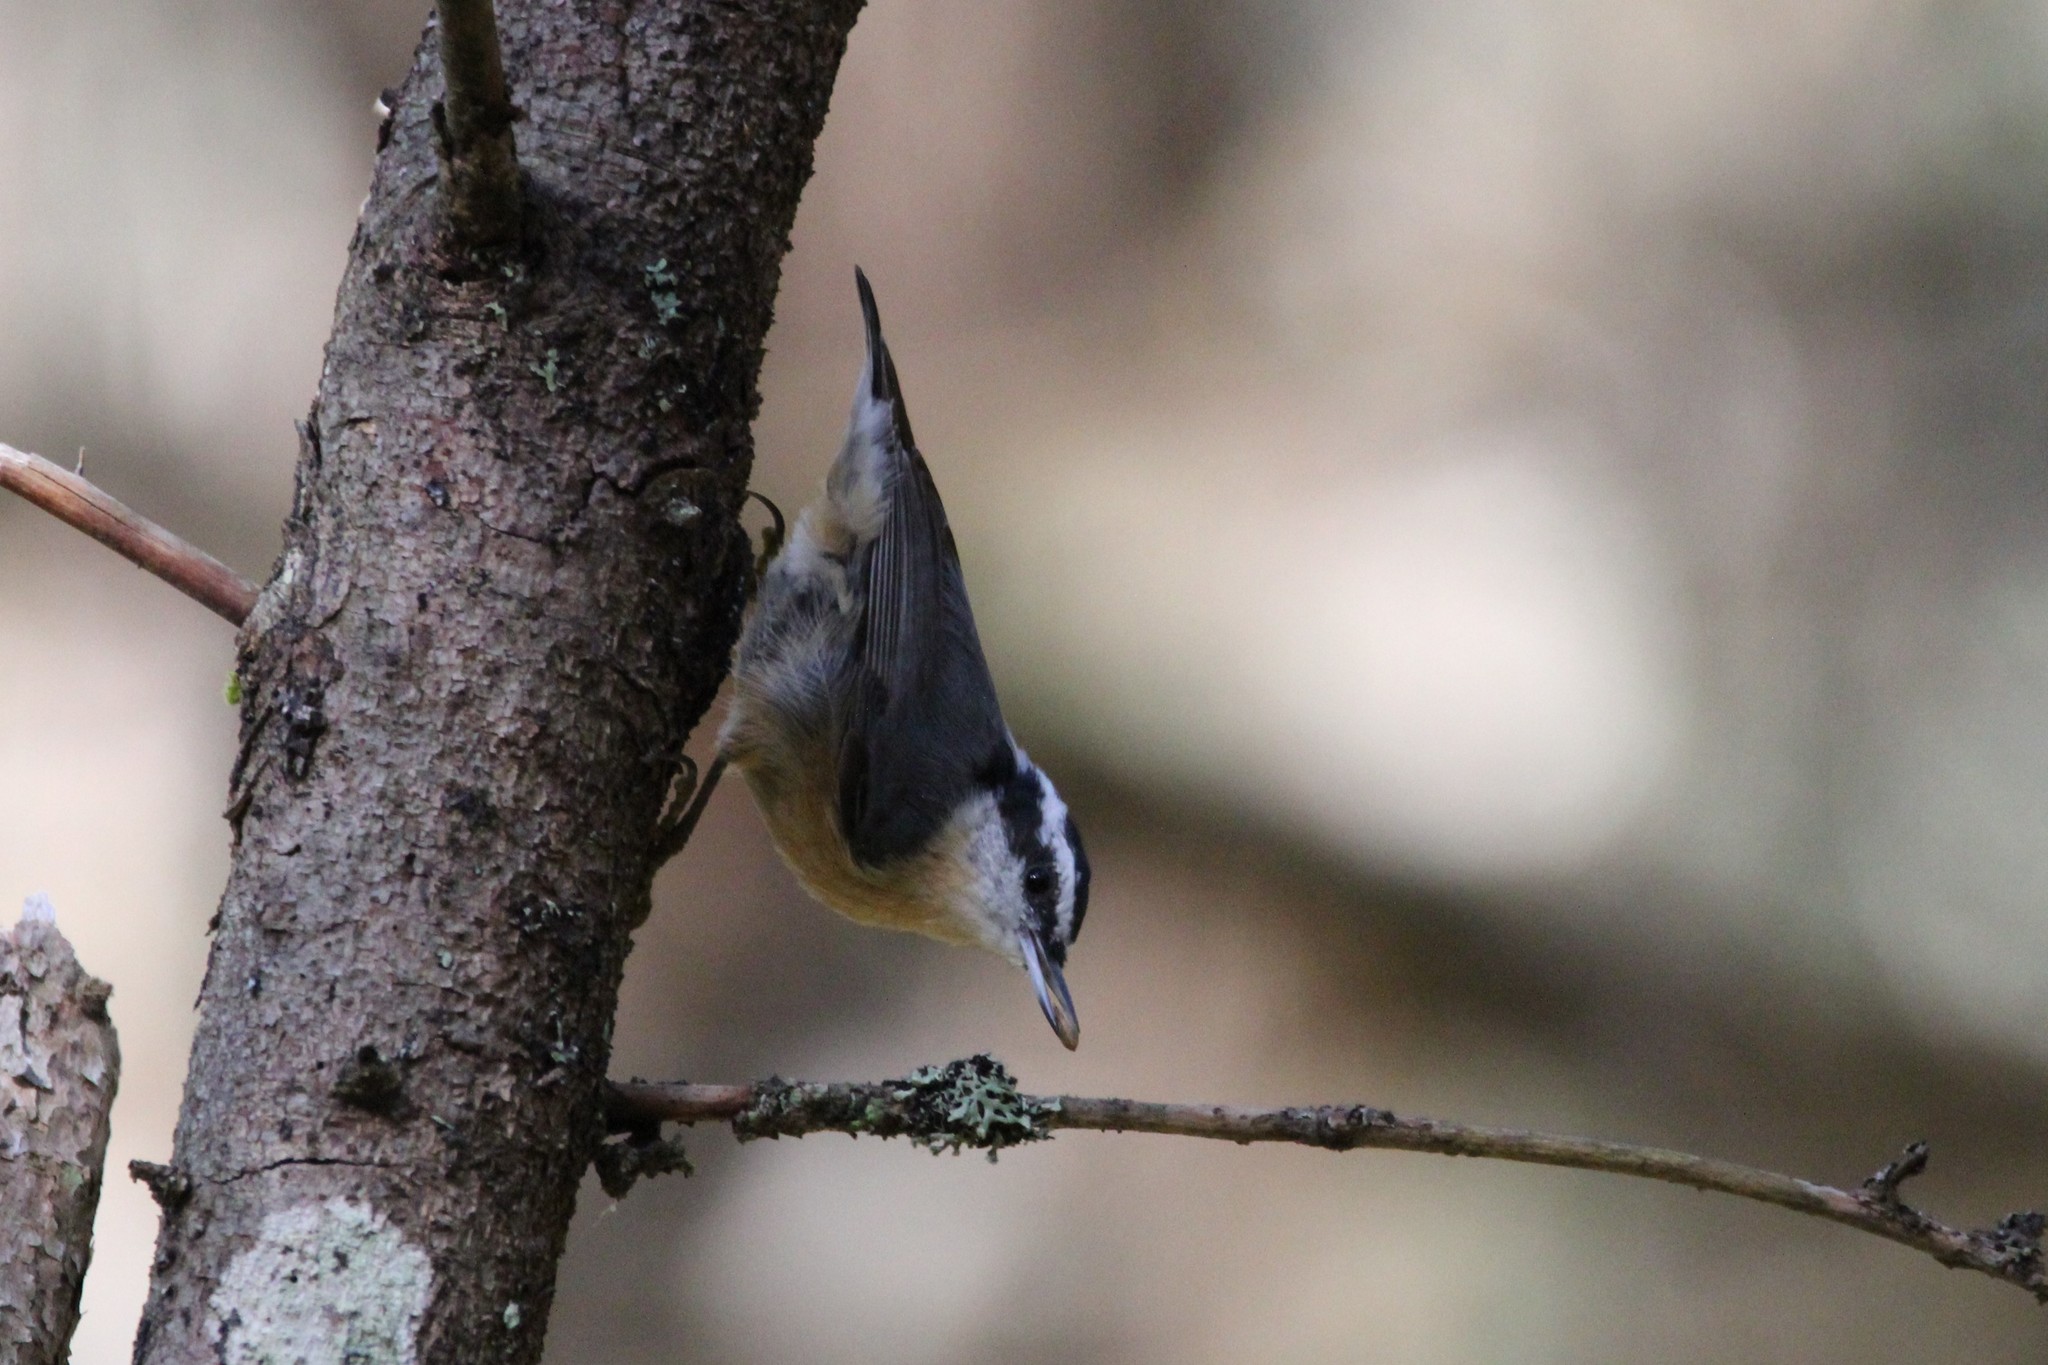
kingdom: Animalia
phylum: Chordata
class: Aves
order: Passeriformes
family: Sittidae
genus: Sitta
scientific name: Sitta canadensis
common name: Red-breasted nuthatch
